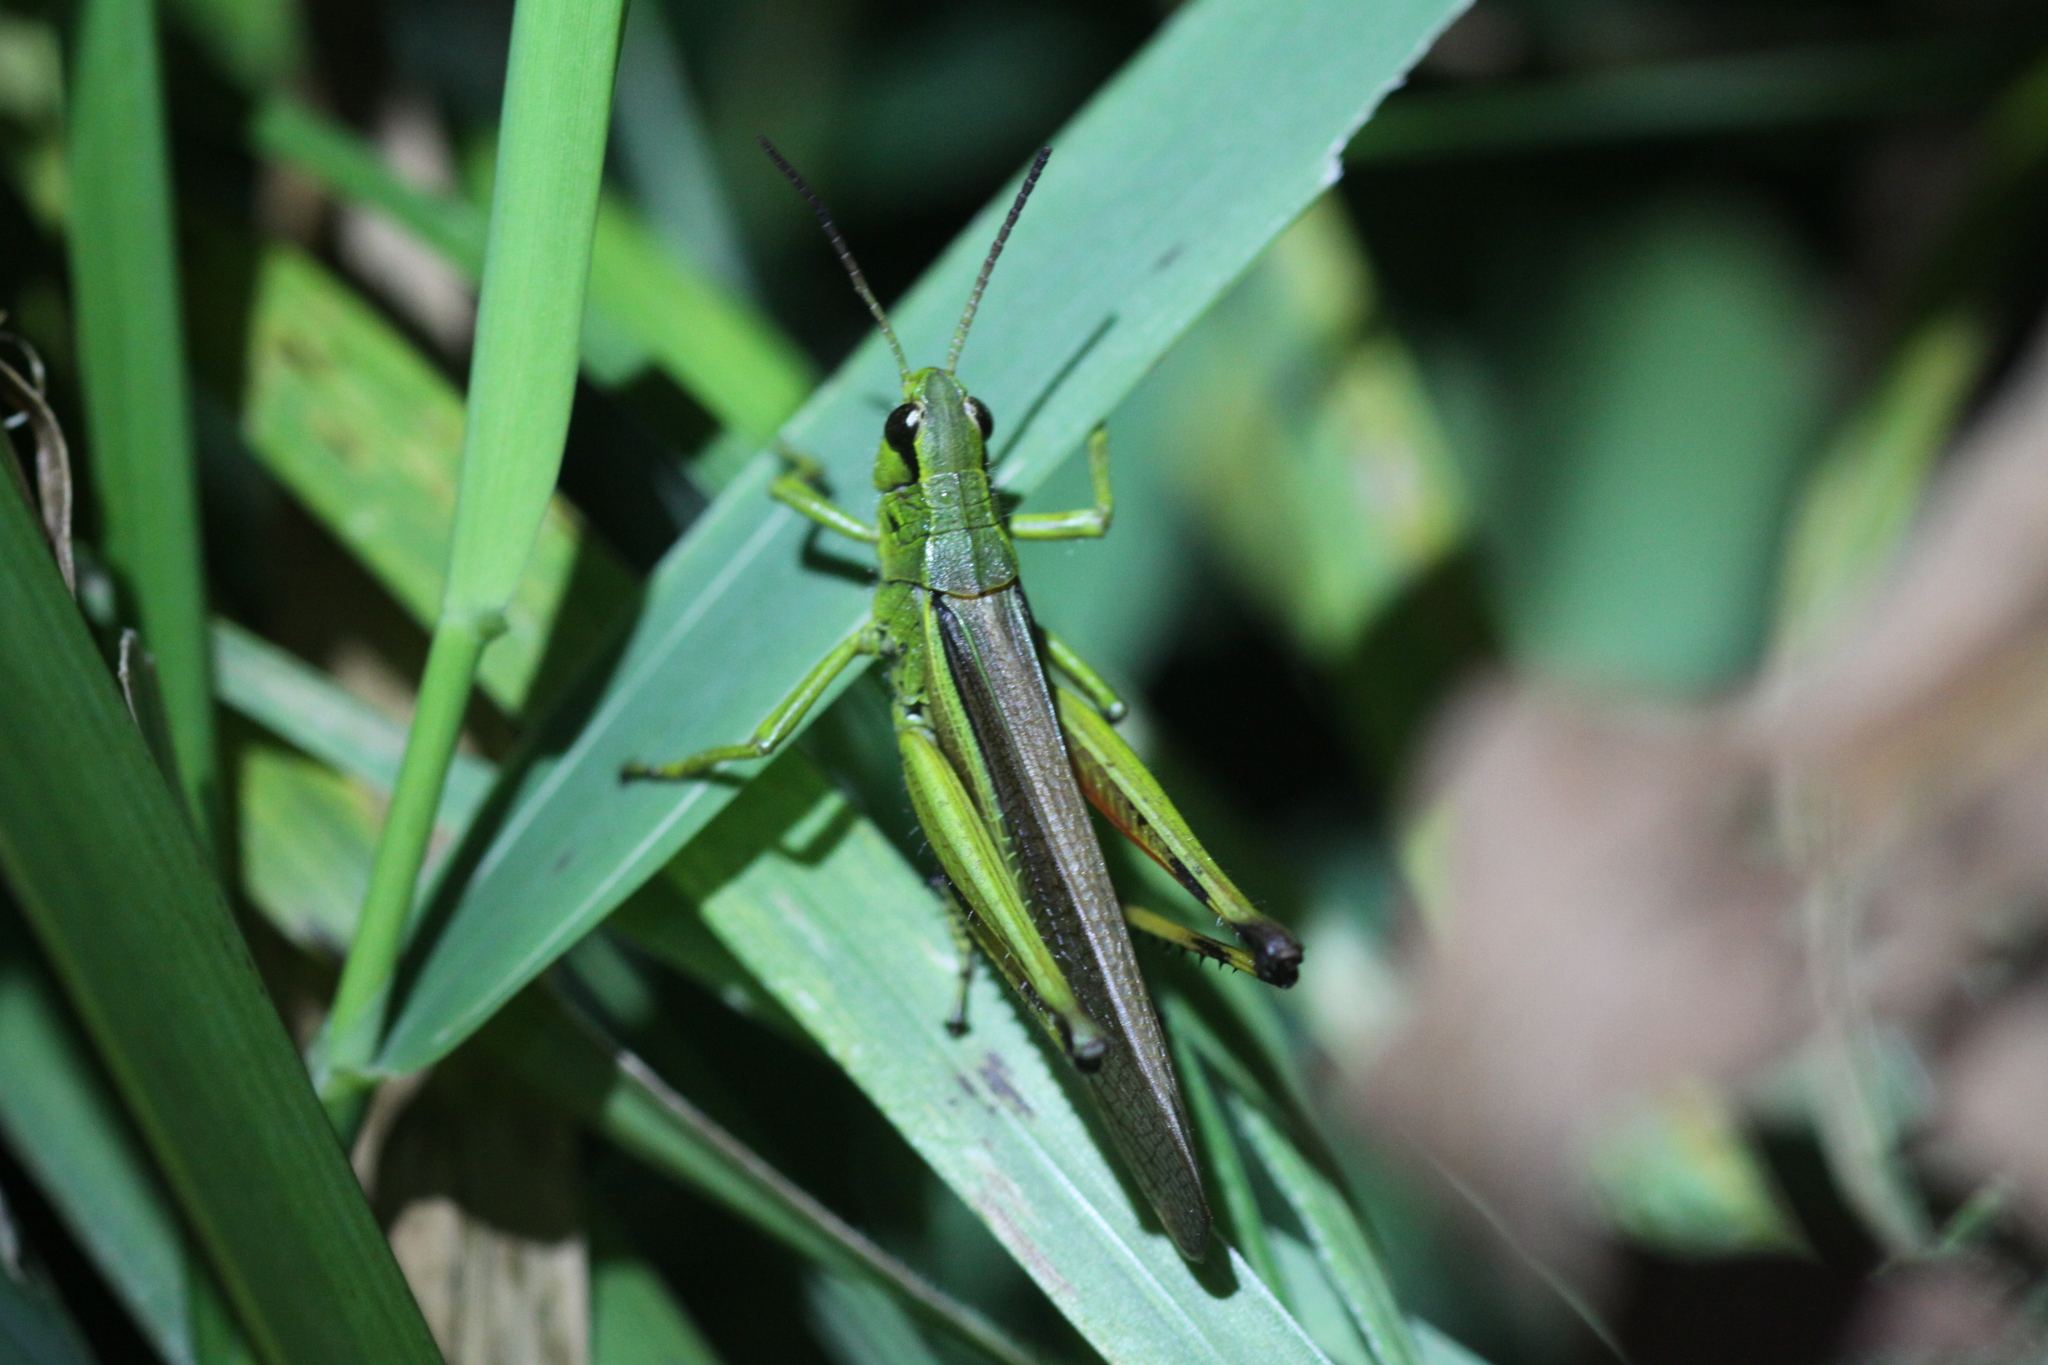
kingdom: Animalia
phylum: Arthropoda
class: Insecta
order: Orthoptera
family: Acrididae
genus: Stethophyma
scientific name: Stethophyma grossum
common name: Large marsh grasshopper
